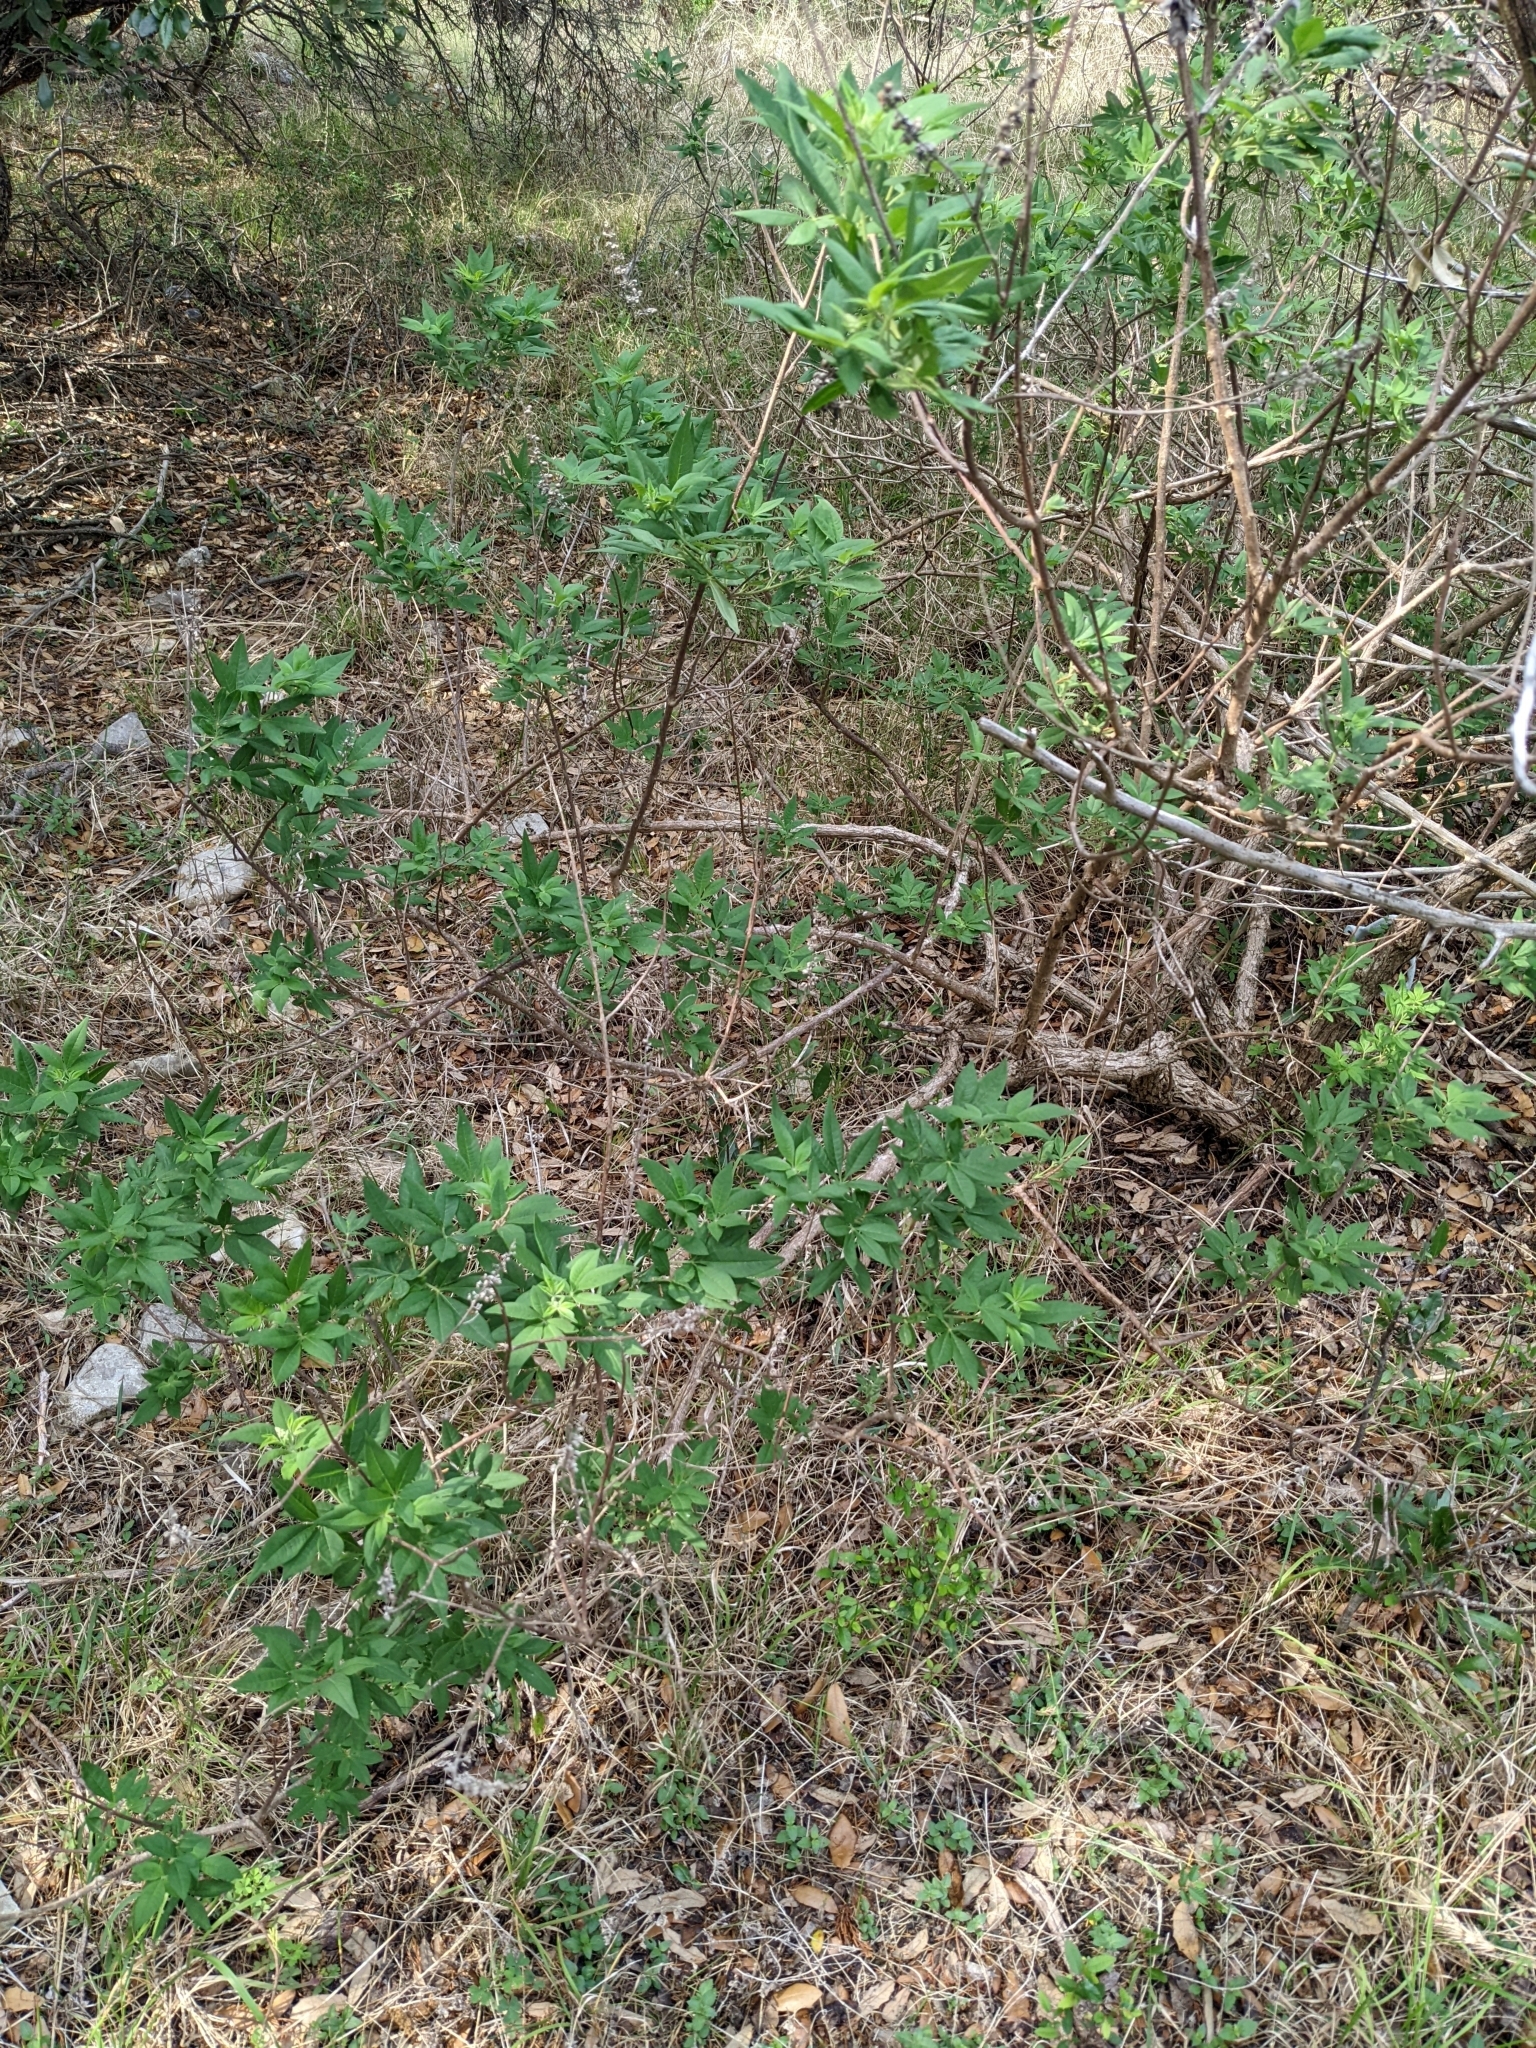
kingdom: Plantae
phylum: Tracheophyta
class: Magnoliopsida
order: Lamiales
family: Lamiaceae
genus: Vitex
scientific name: Vitex agnus-castus
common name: Chasteberry
